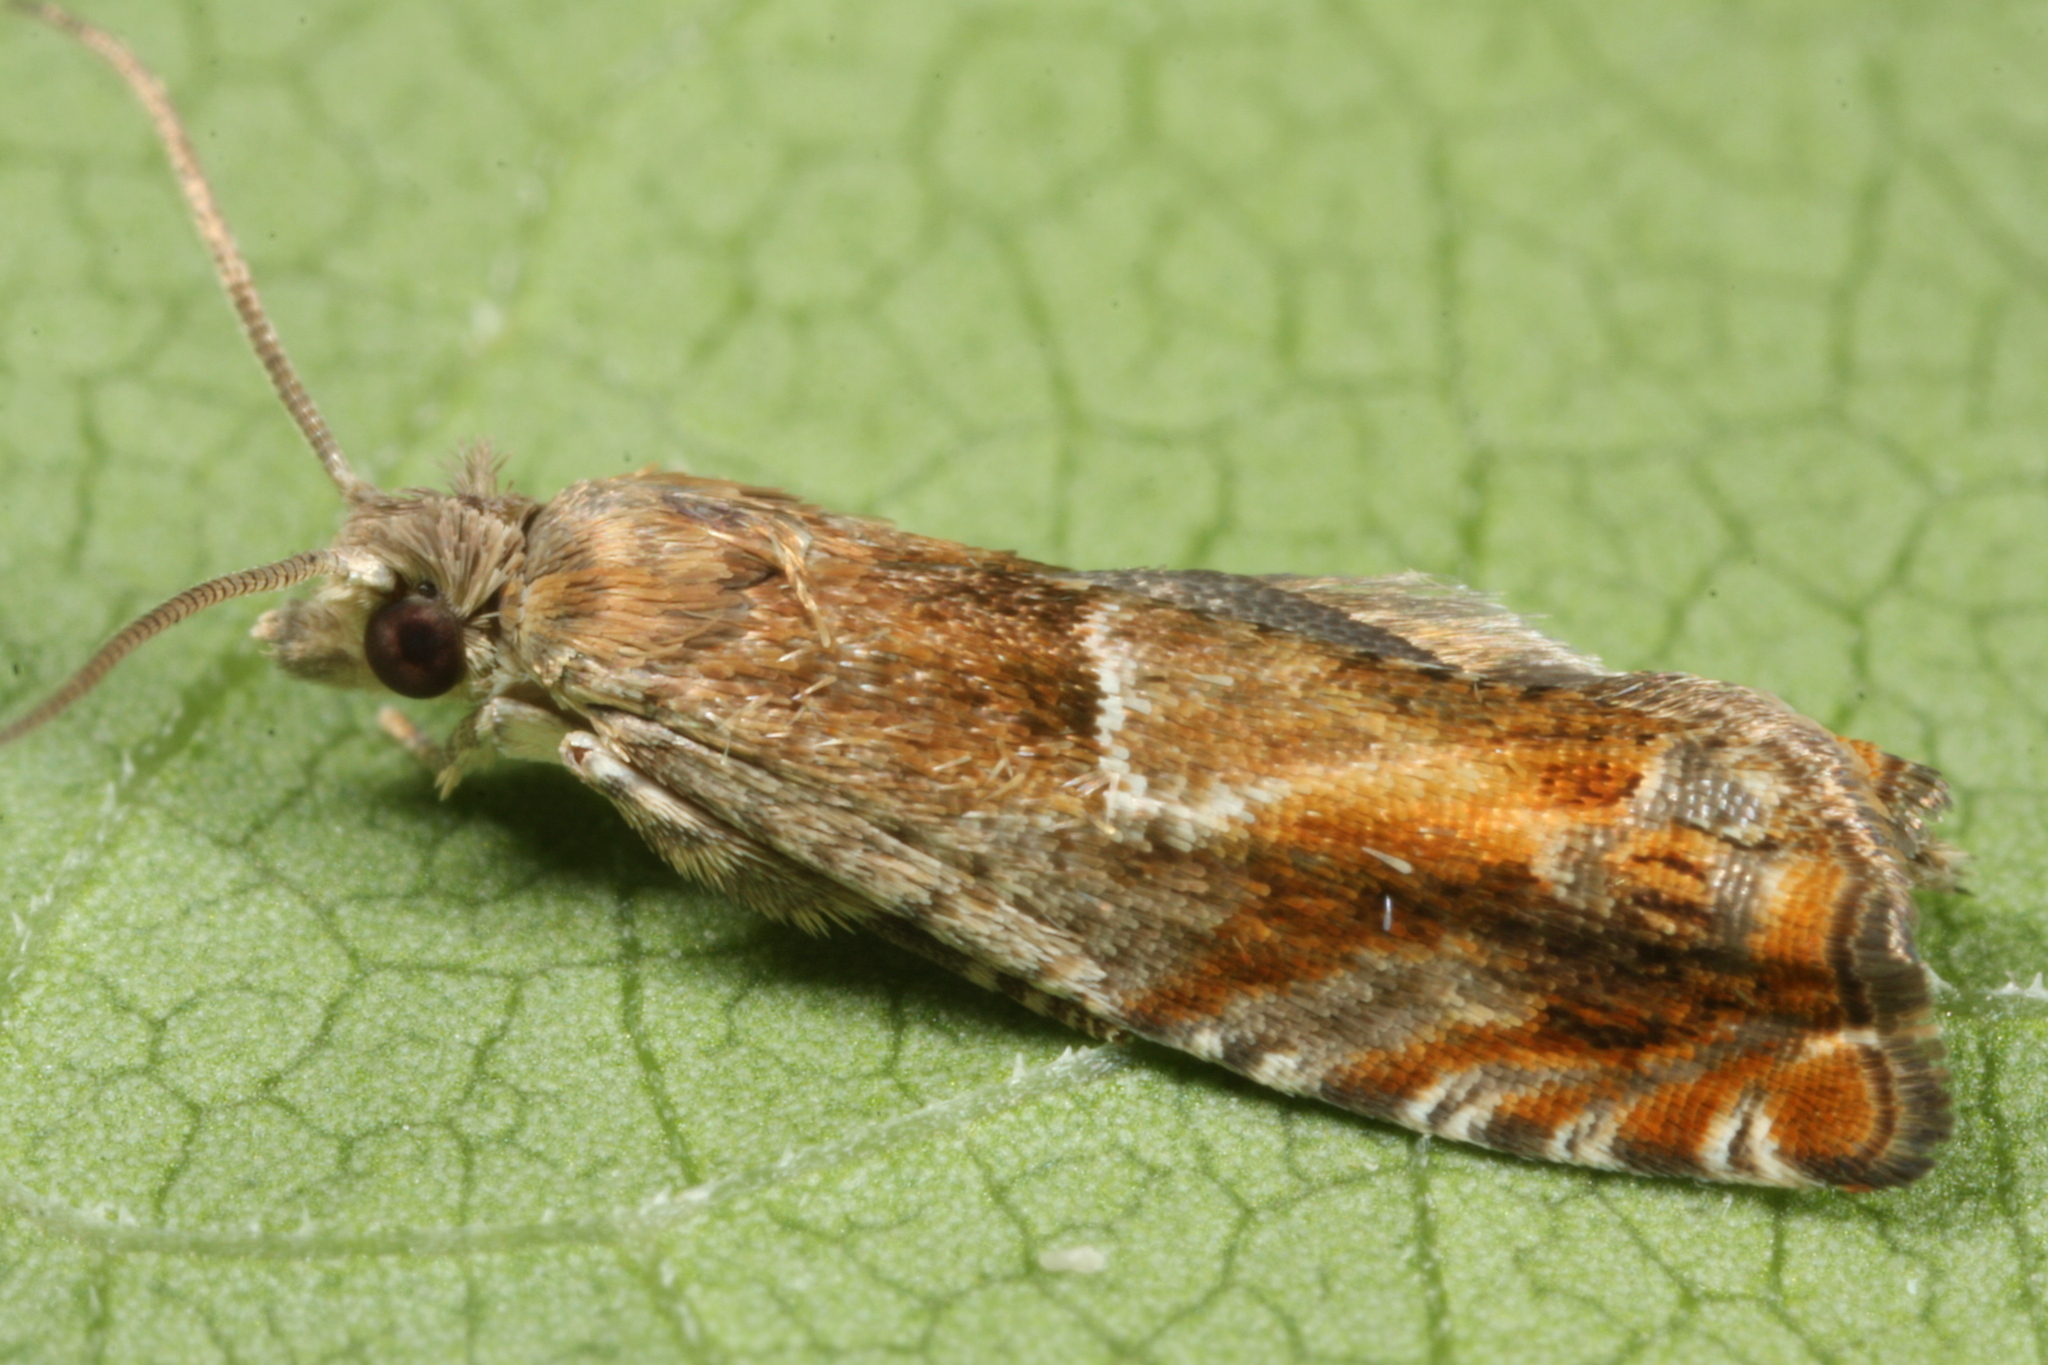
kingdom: Animalia
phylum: Arthropoda
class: Insecta
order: Lepidoptera
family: Tortricidae
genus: Epinotia
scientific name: Epinotia tenerana
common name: Nut bud moth
